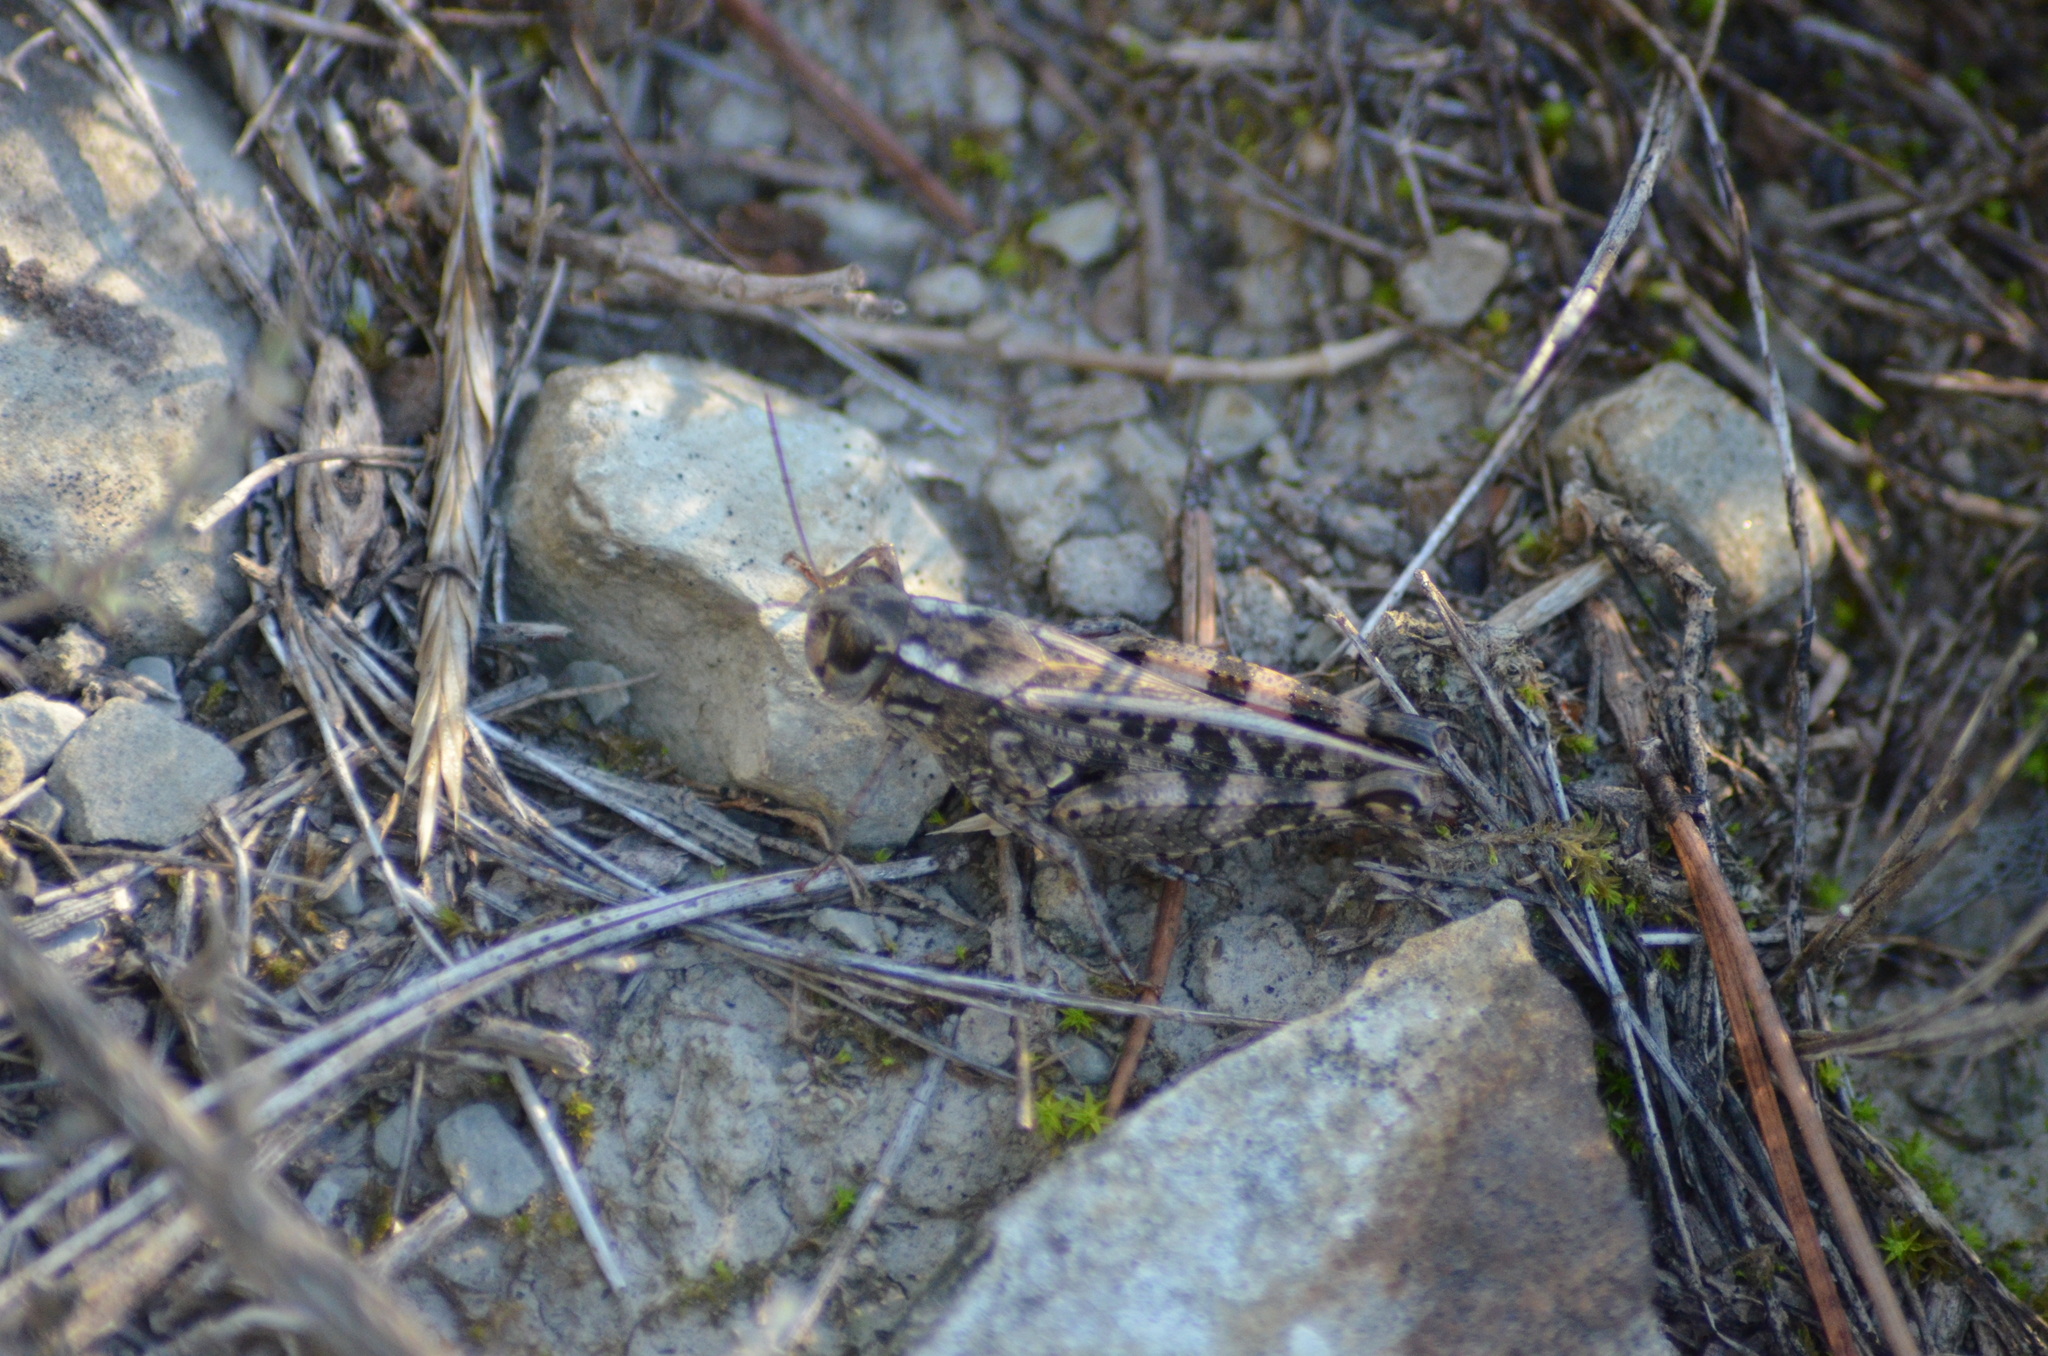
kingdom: Animalia
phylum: Arthropoda
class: Insecta
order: Orthoptera
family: Acrididae
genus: Calliptamus
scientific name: Calliptamus barbarus
